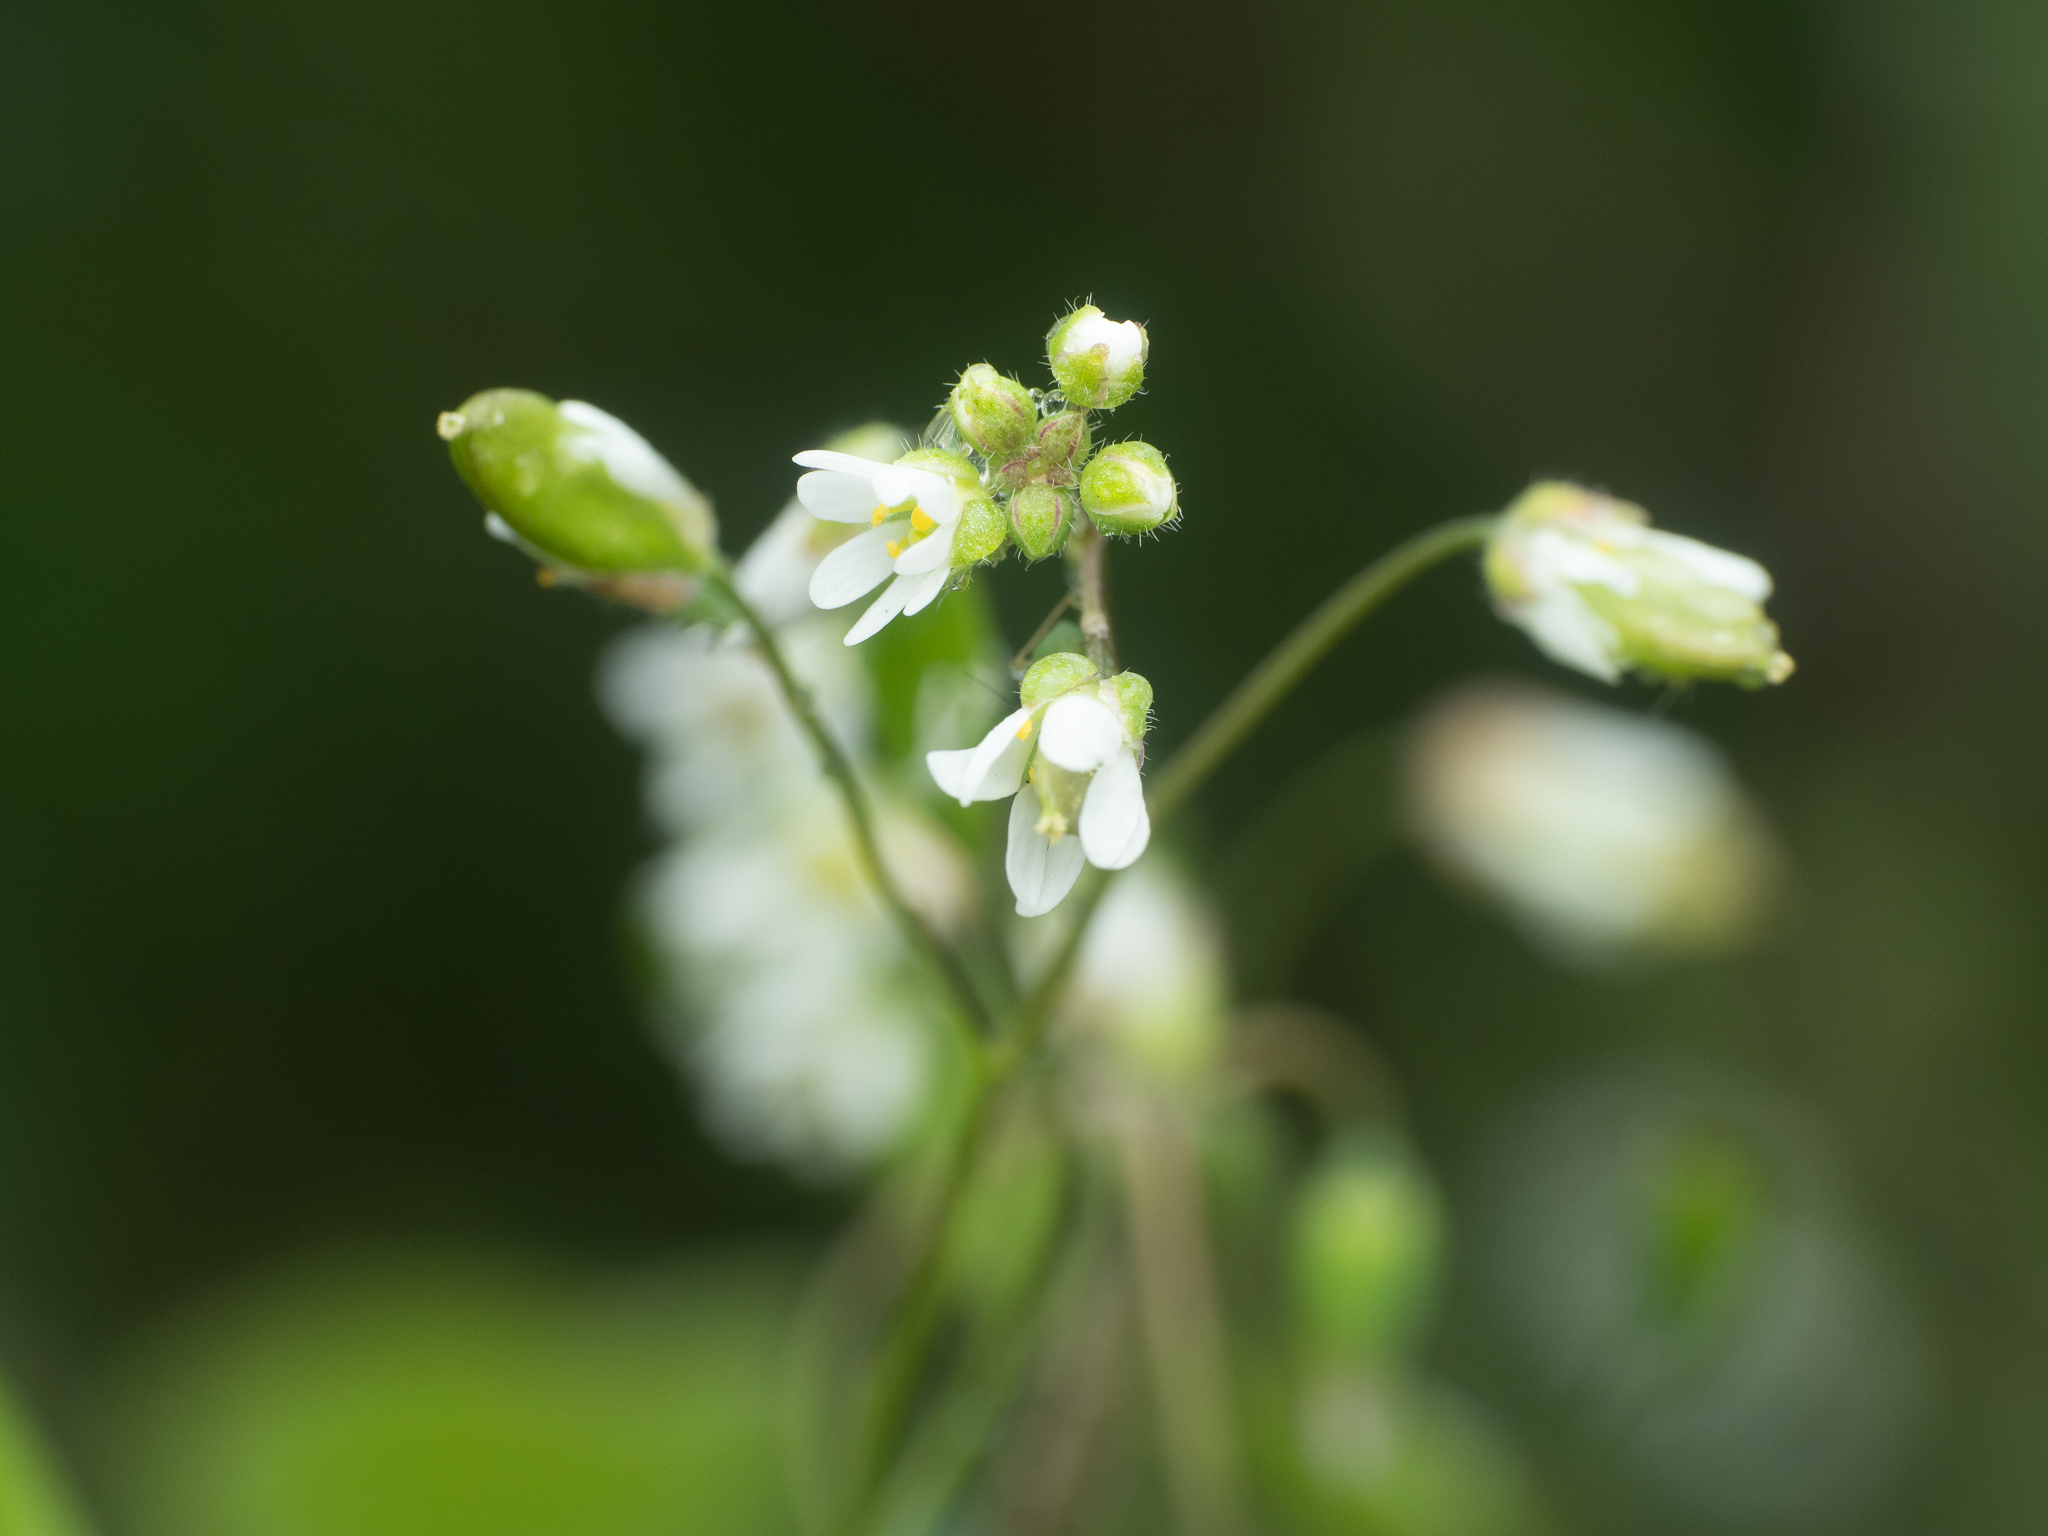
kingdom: Plantae
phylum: Tracheophyta
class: Magnoliopsida
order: Brassicales
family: Brassicaceae
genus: Draba
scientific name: Draba verna
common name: Spring draba
